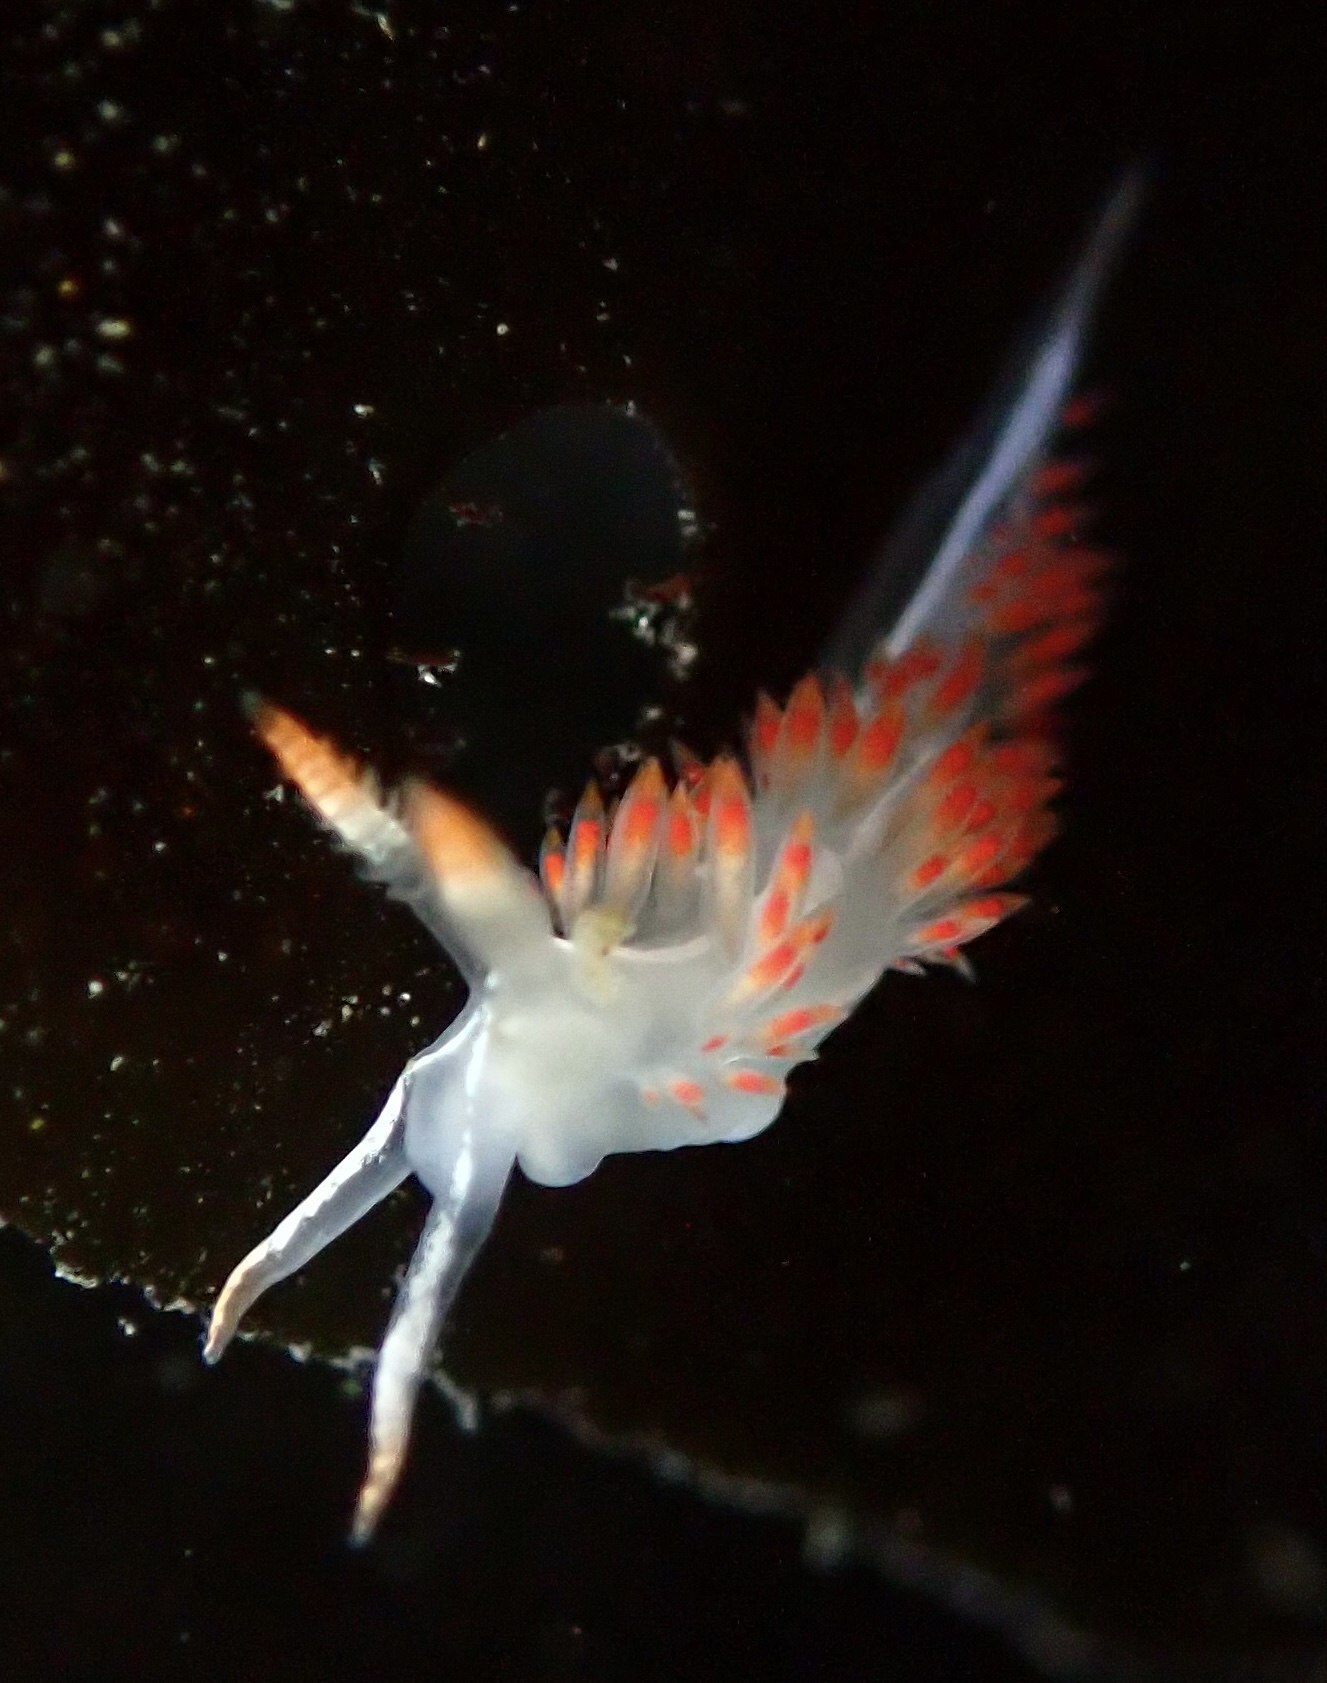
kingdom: Animalia
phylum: Mollusca
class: Gastropoda
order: Nudibranchia
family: Coryphellidae
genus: Coryphella
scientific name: Coryphella trilineata
